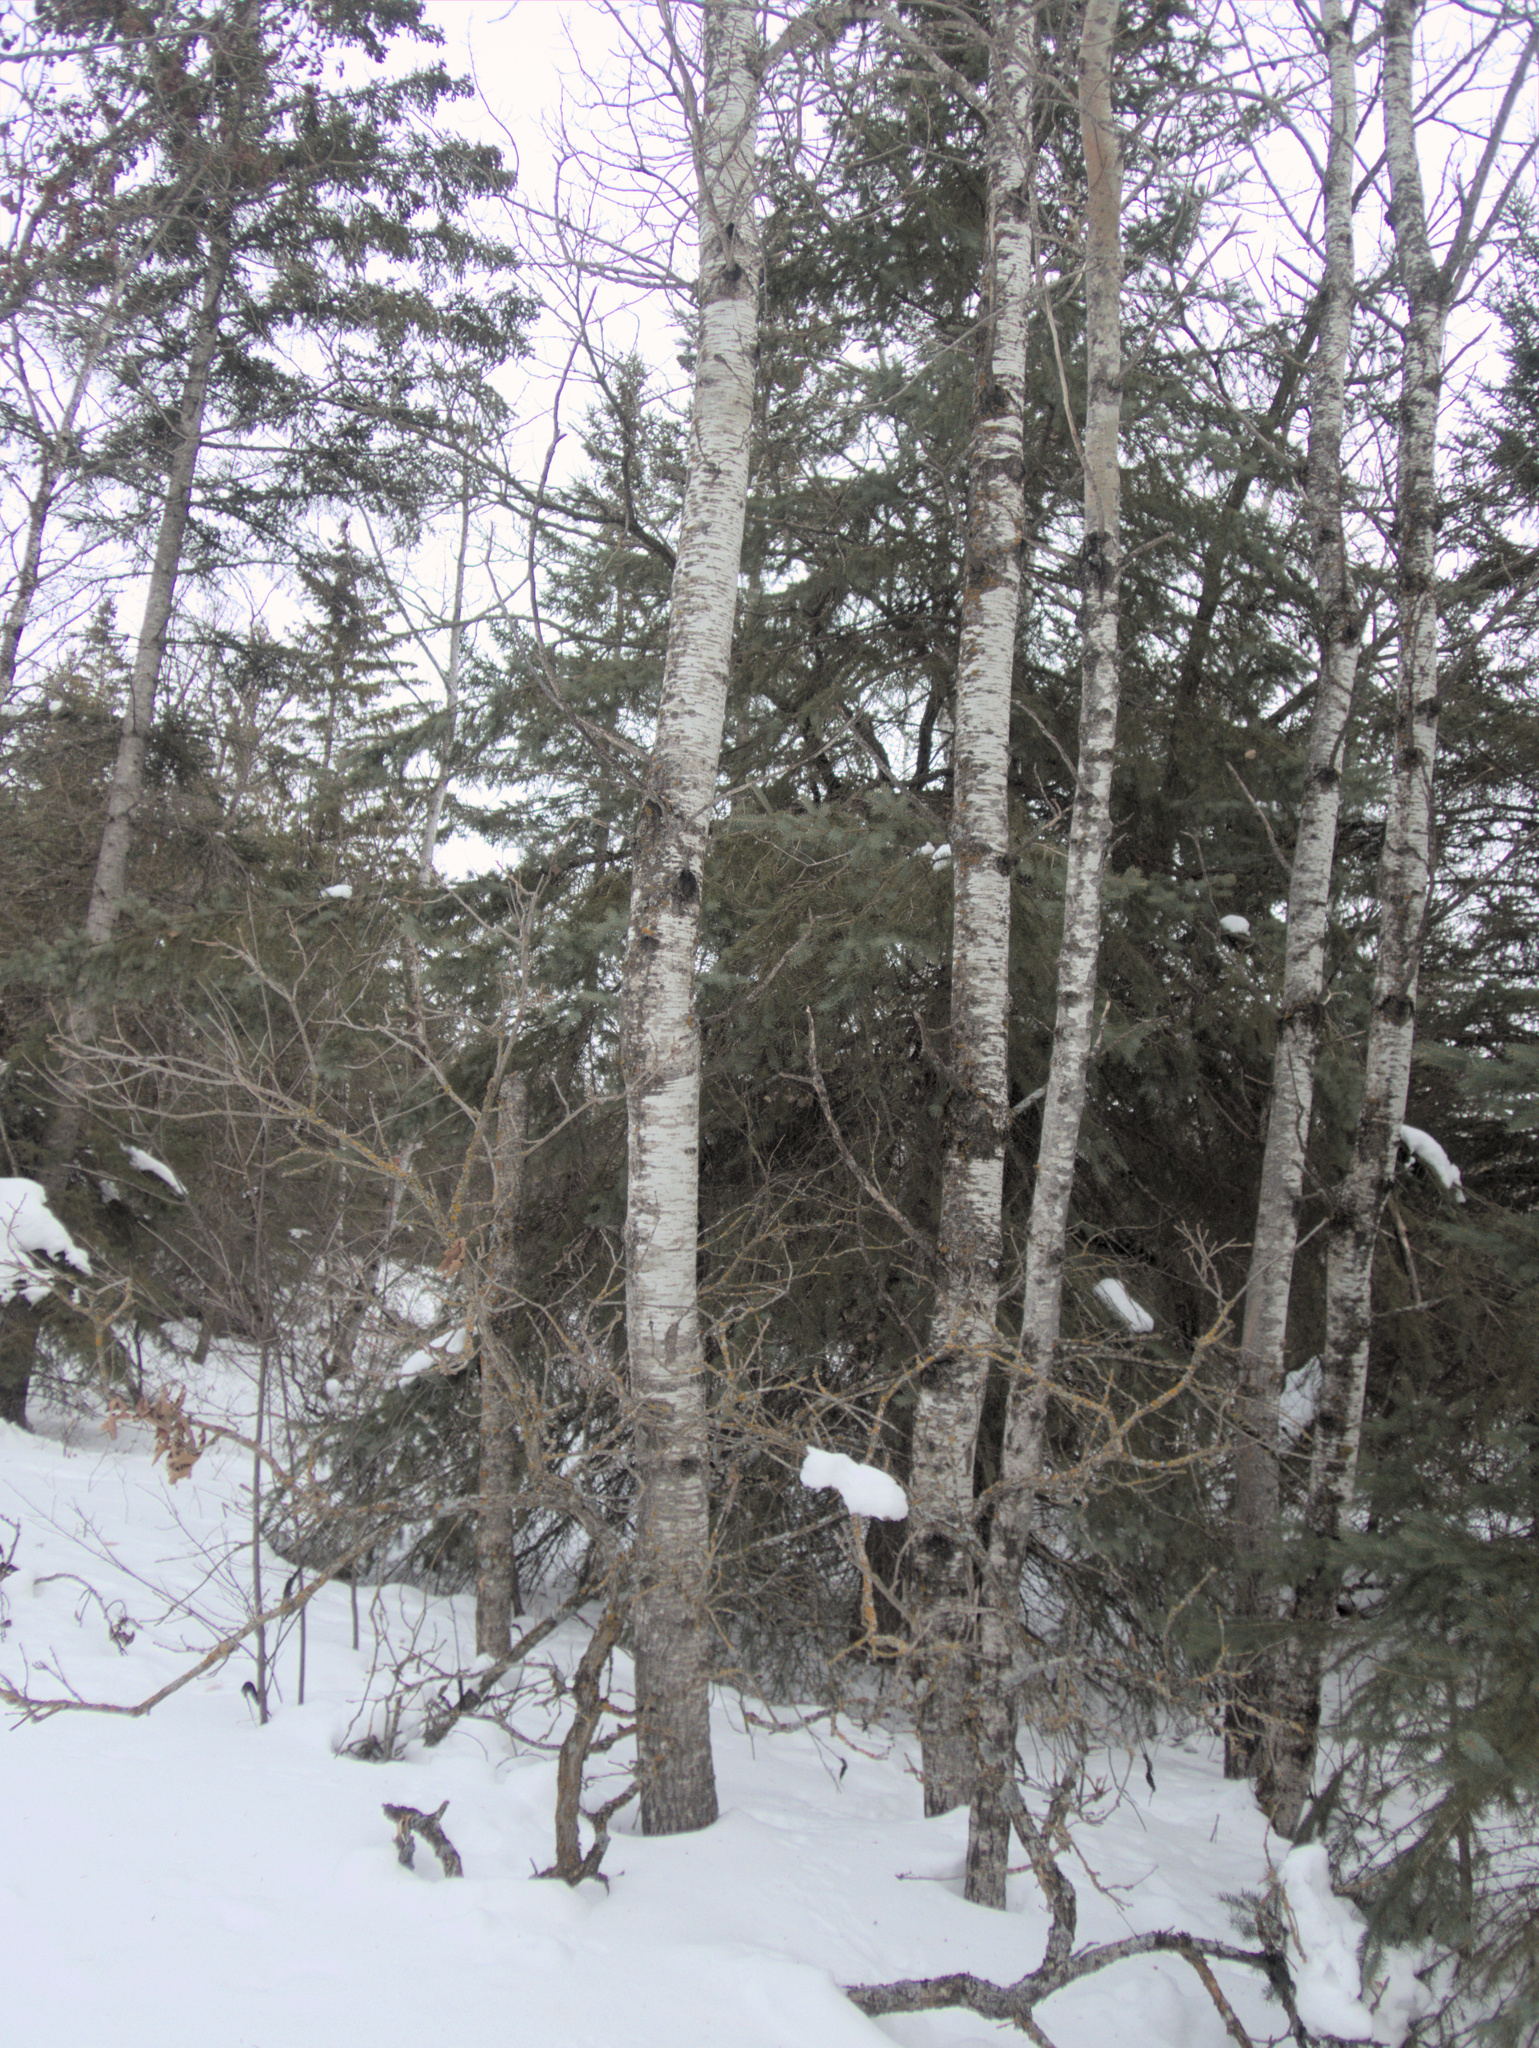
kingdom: Plantae
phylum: Tracheophyta
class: Magnoliopsida
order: Malpighiales
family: Salicaceae
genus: Populus
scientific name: Populus tremuloides
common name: Quaking aspen
